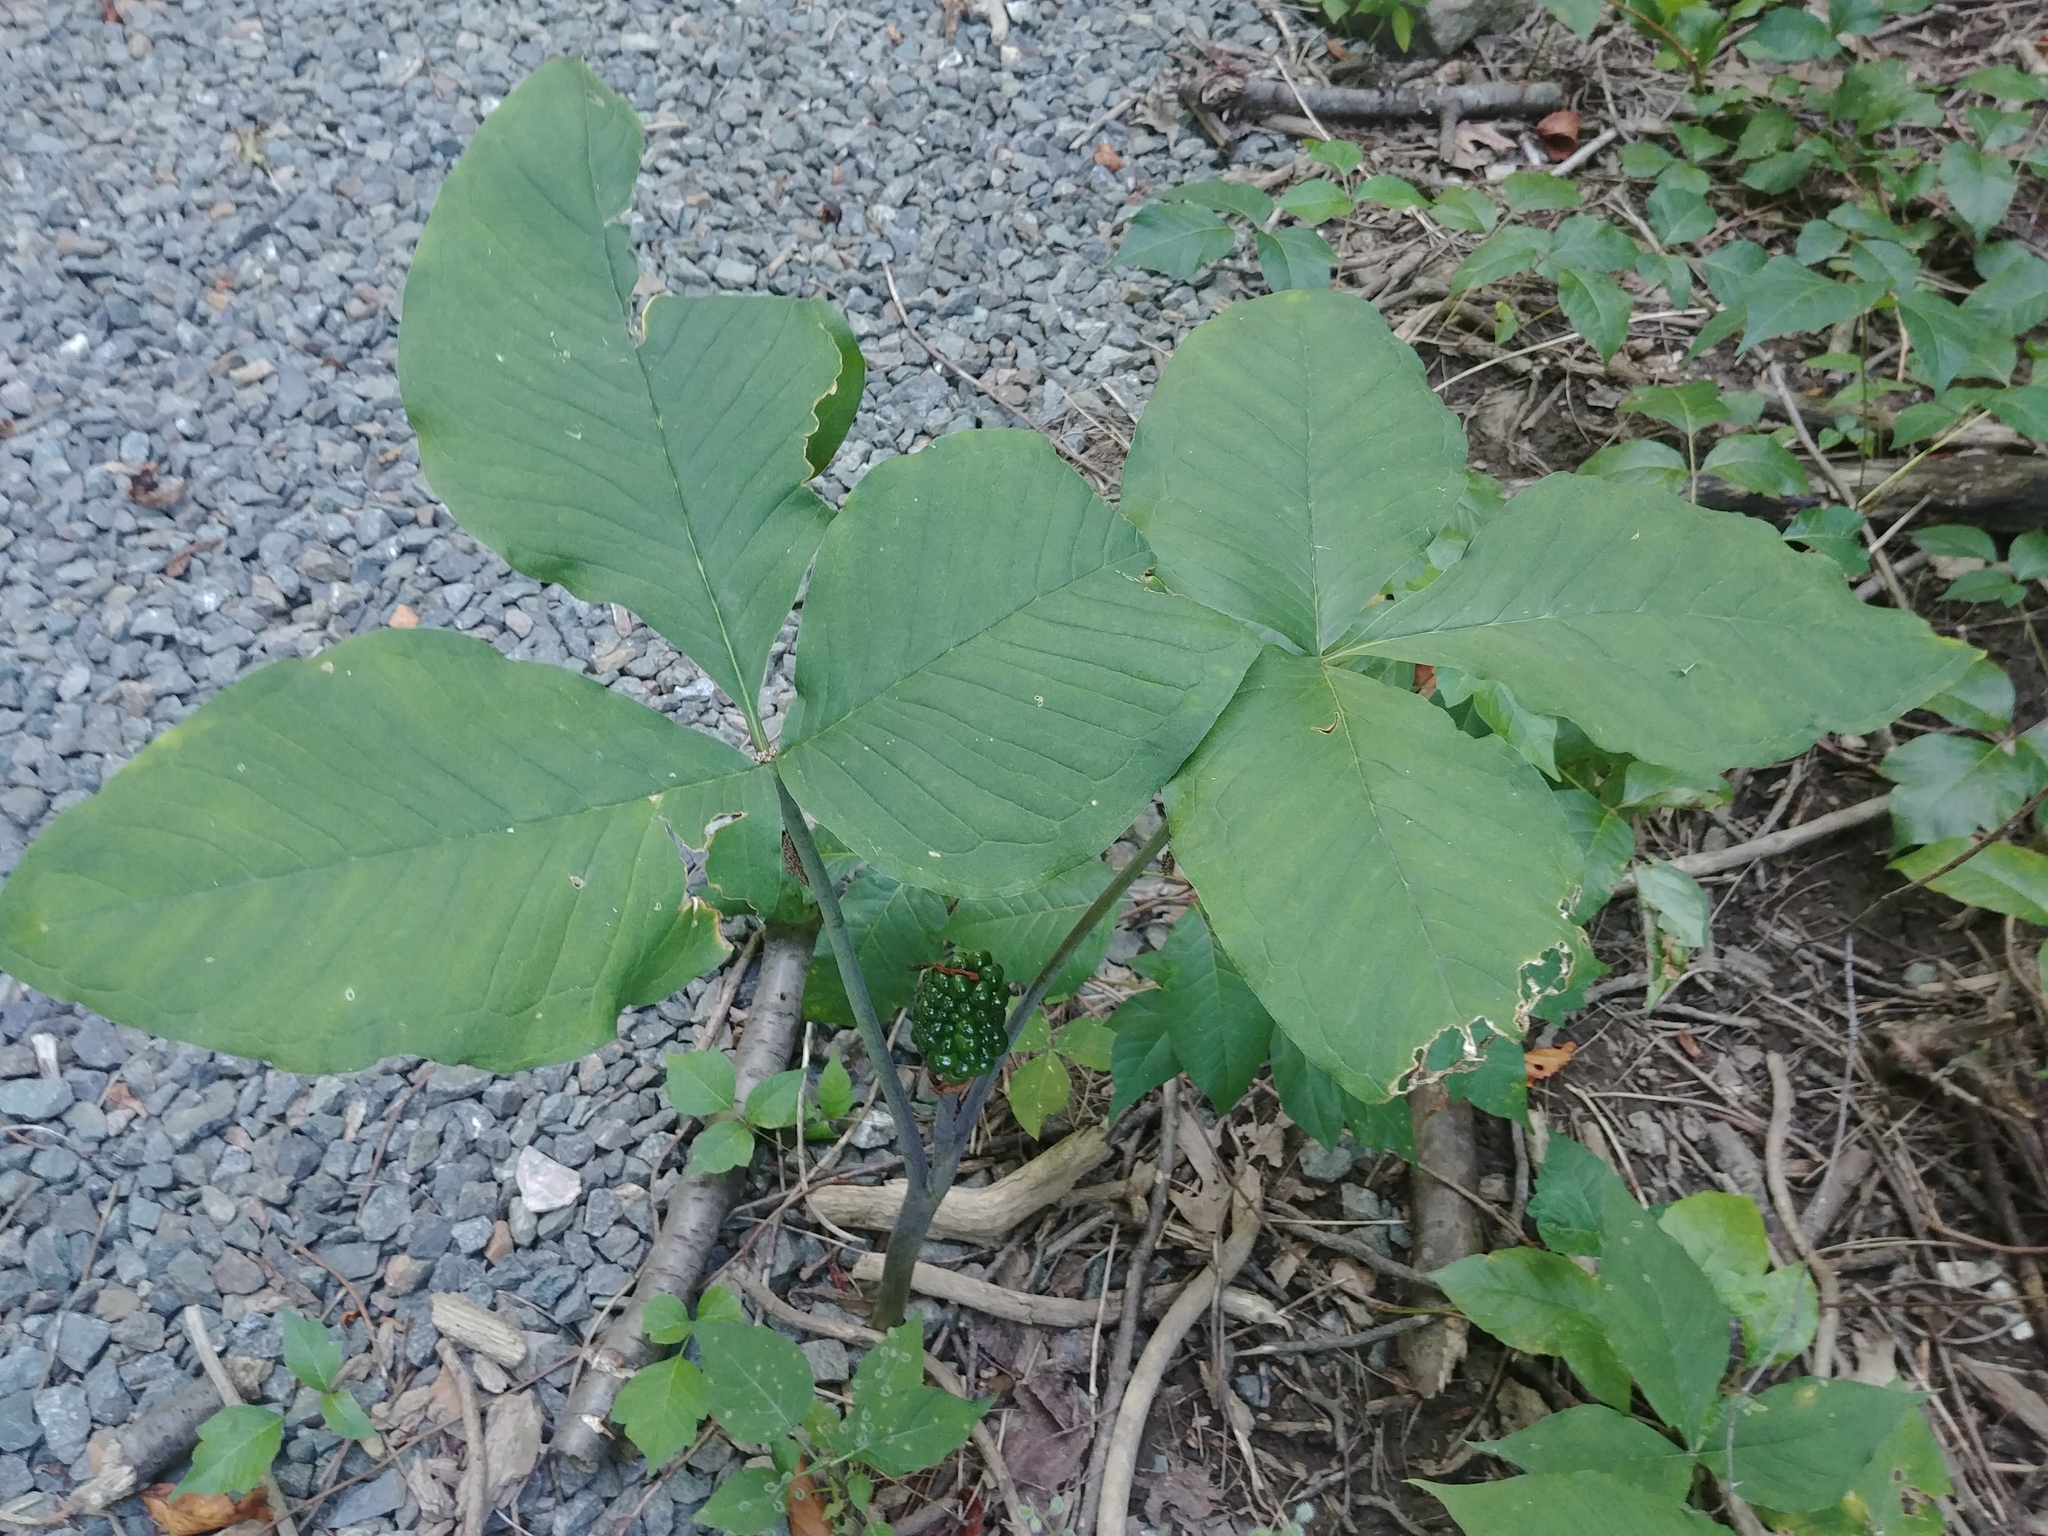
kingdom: Plantae
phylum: Tracheophyta
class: Liliopsida
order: Alismatales
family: Araceae
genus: Arisaema
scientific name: Arisaema triphyllum
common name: Jack-in-the-pulpit
